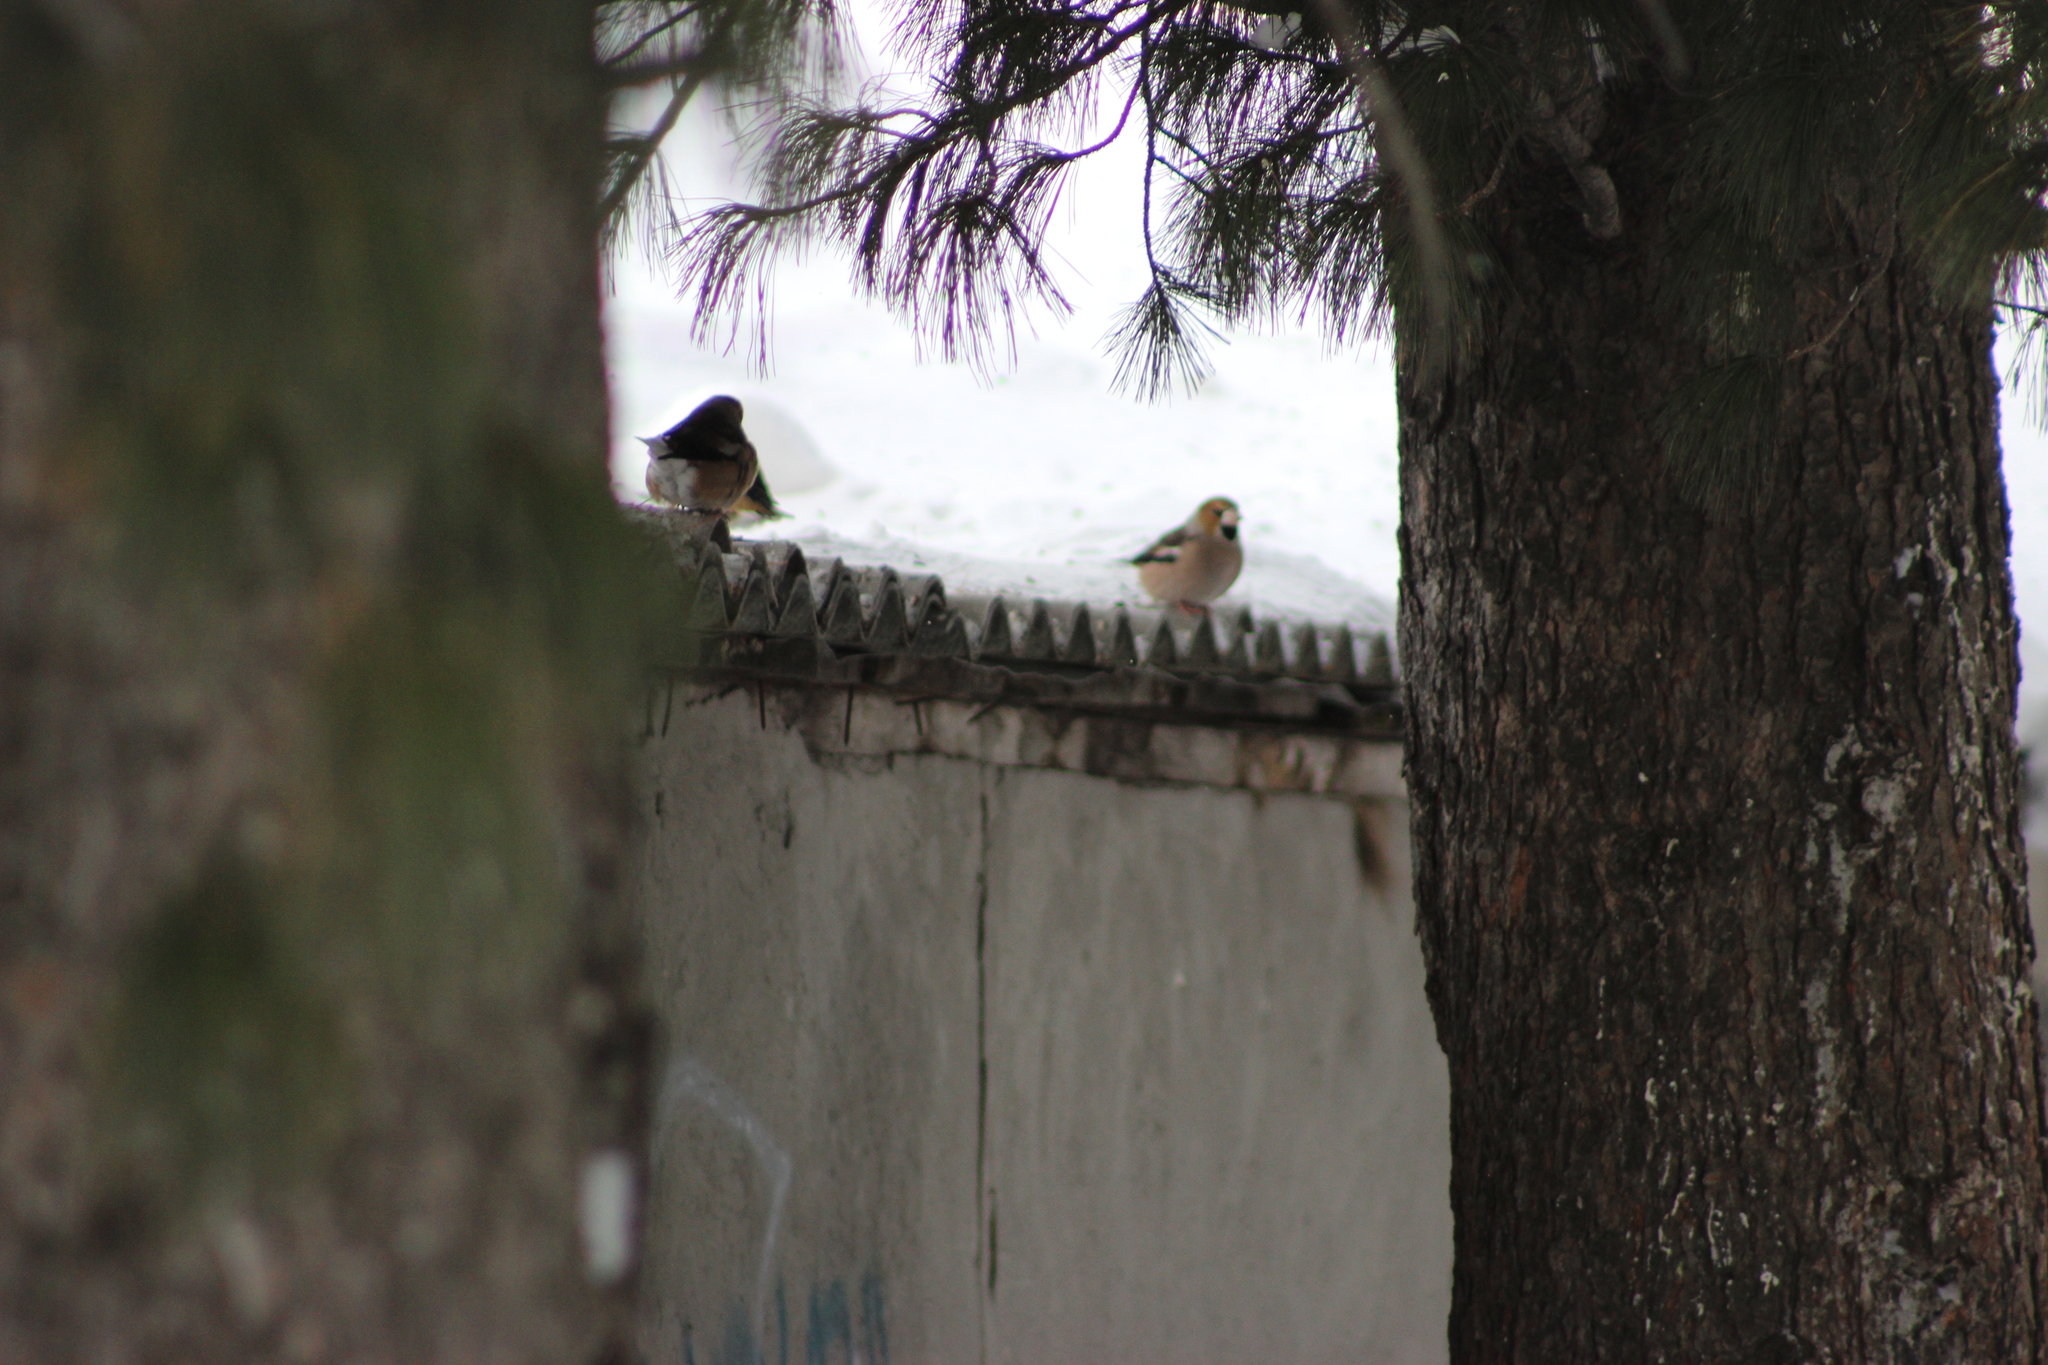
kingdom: Animalia
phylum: Chordata
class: Aves
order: Passeriformes
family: Fringillidae
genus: Coccothraustes
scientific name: Coccothraustes coccothraustes
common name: Hawfinch
